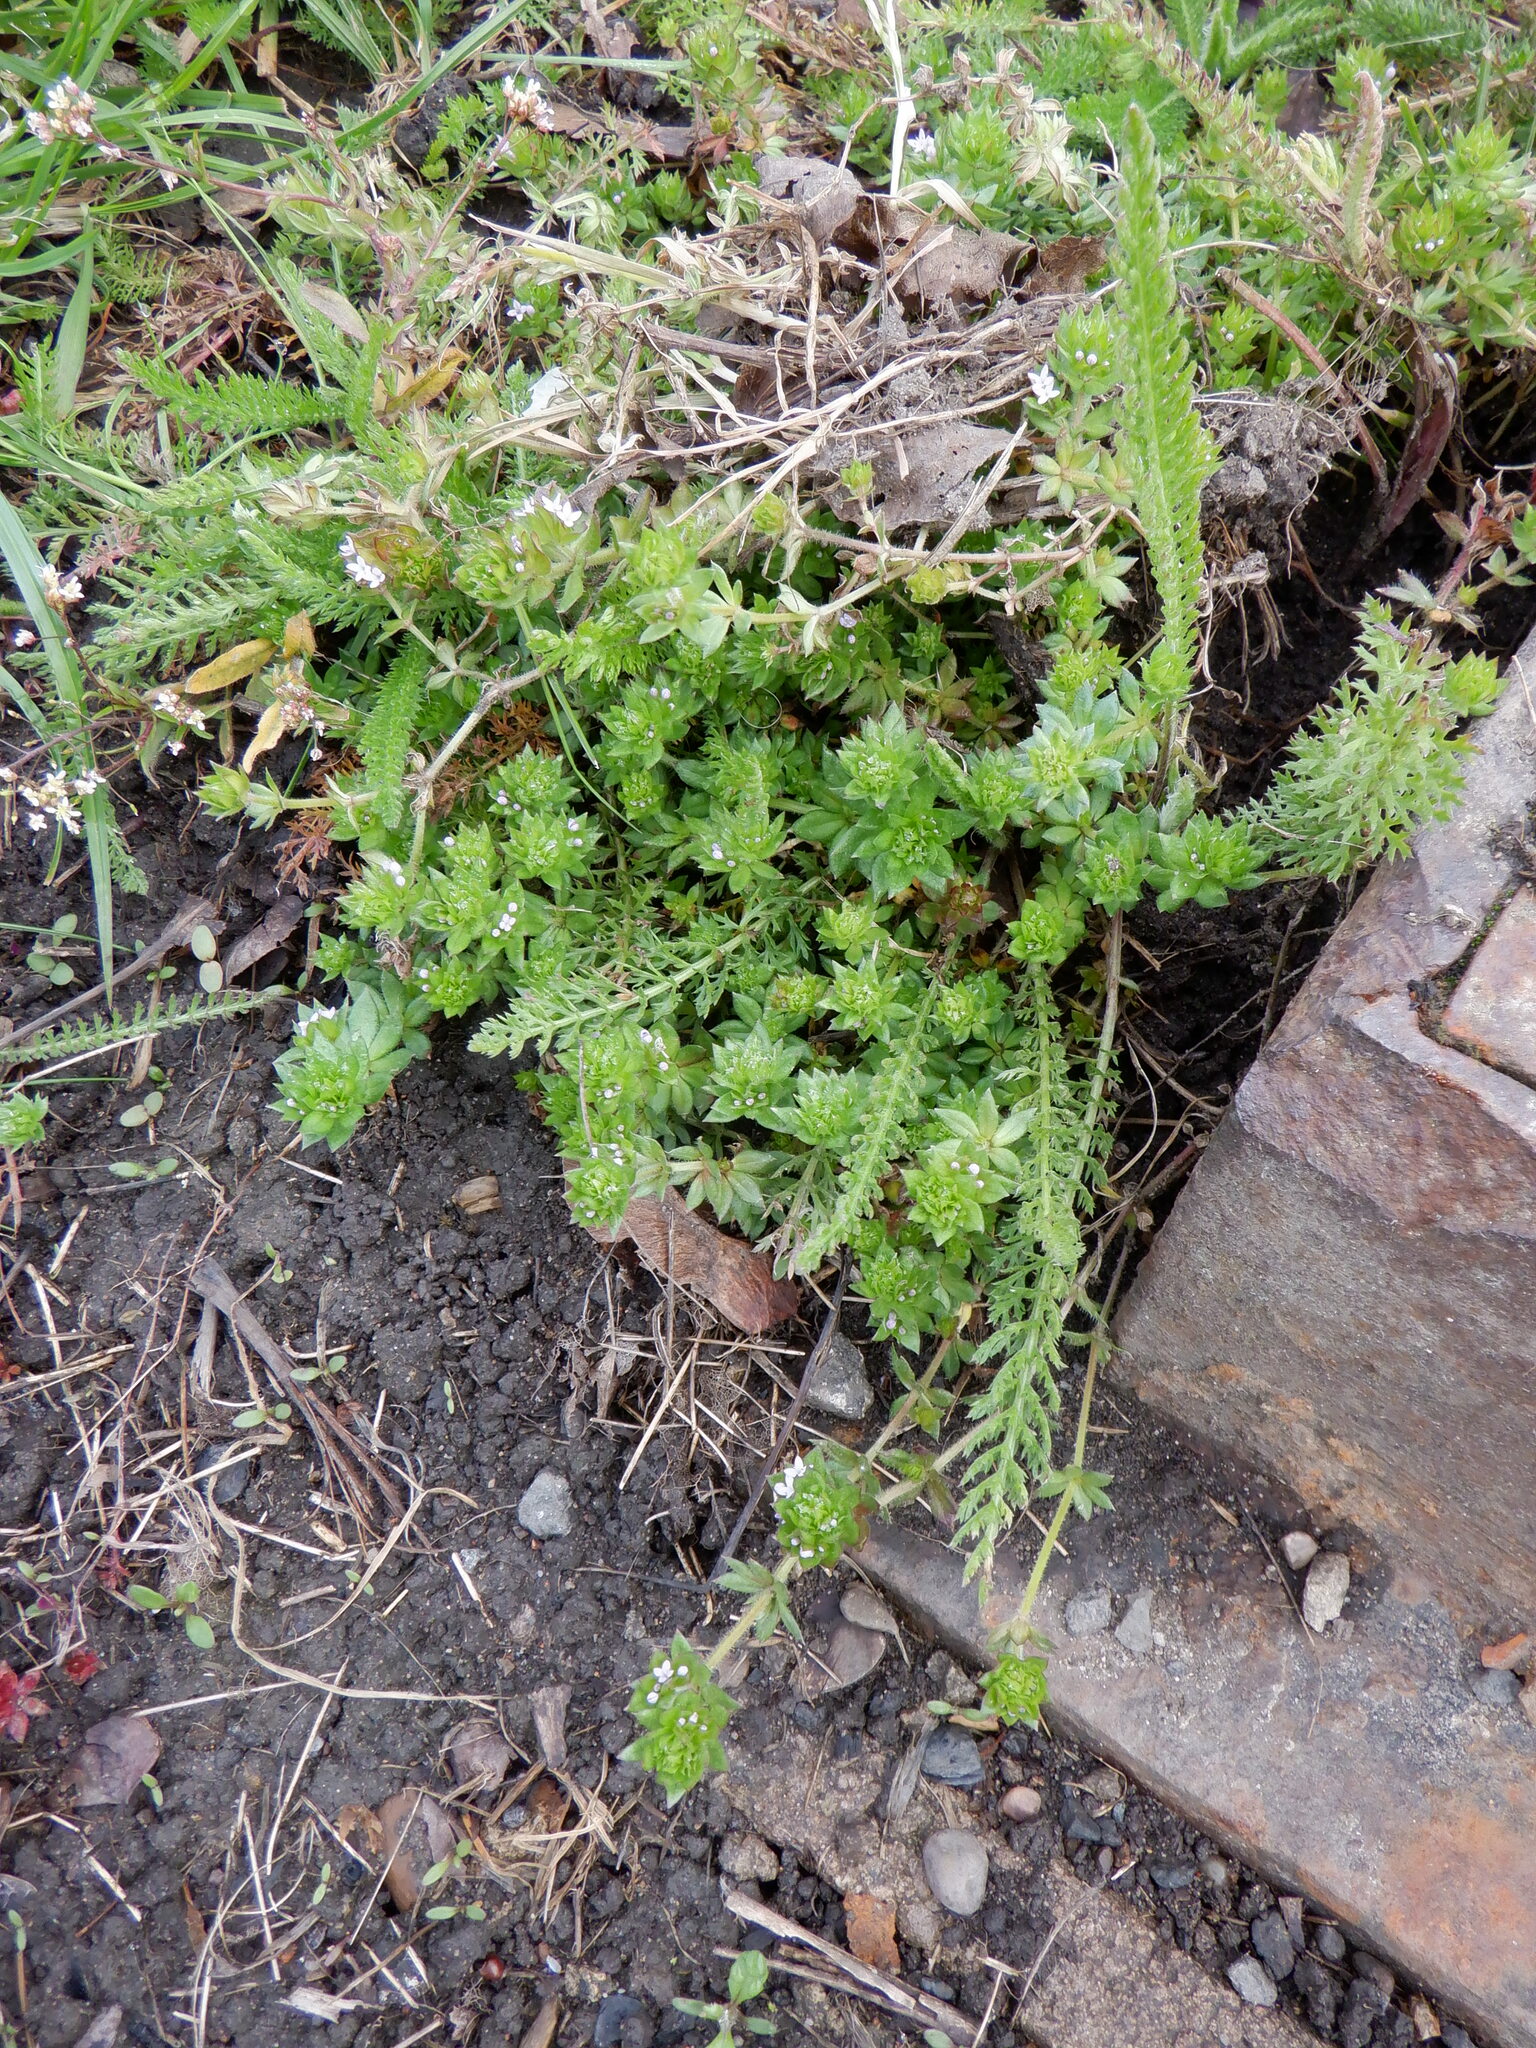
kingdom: Plantae
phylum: Tracheophyta
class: Magnoliopsida
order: Gentianales
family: Rubiaceae
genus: Sherardia
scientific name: Sherardia arvensis
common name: Field madder
